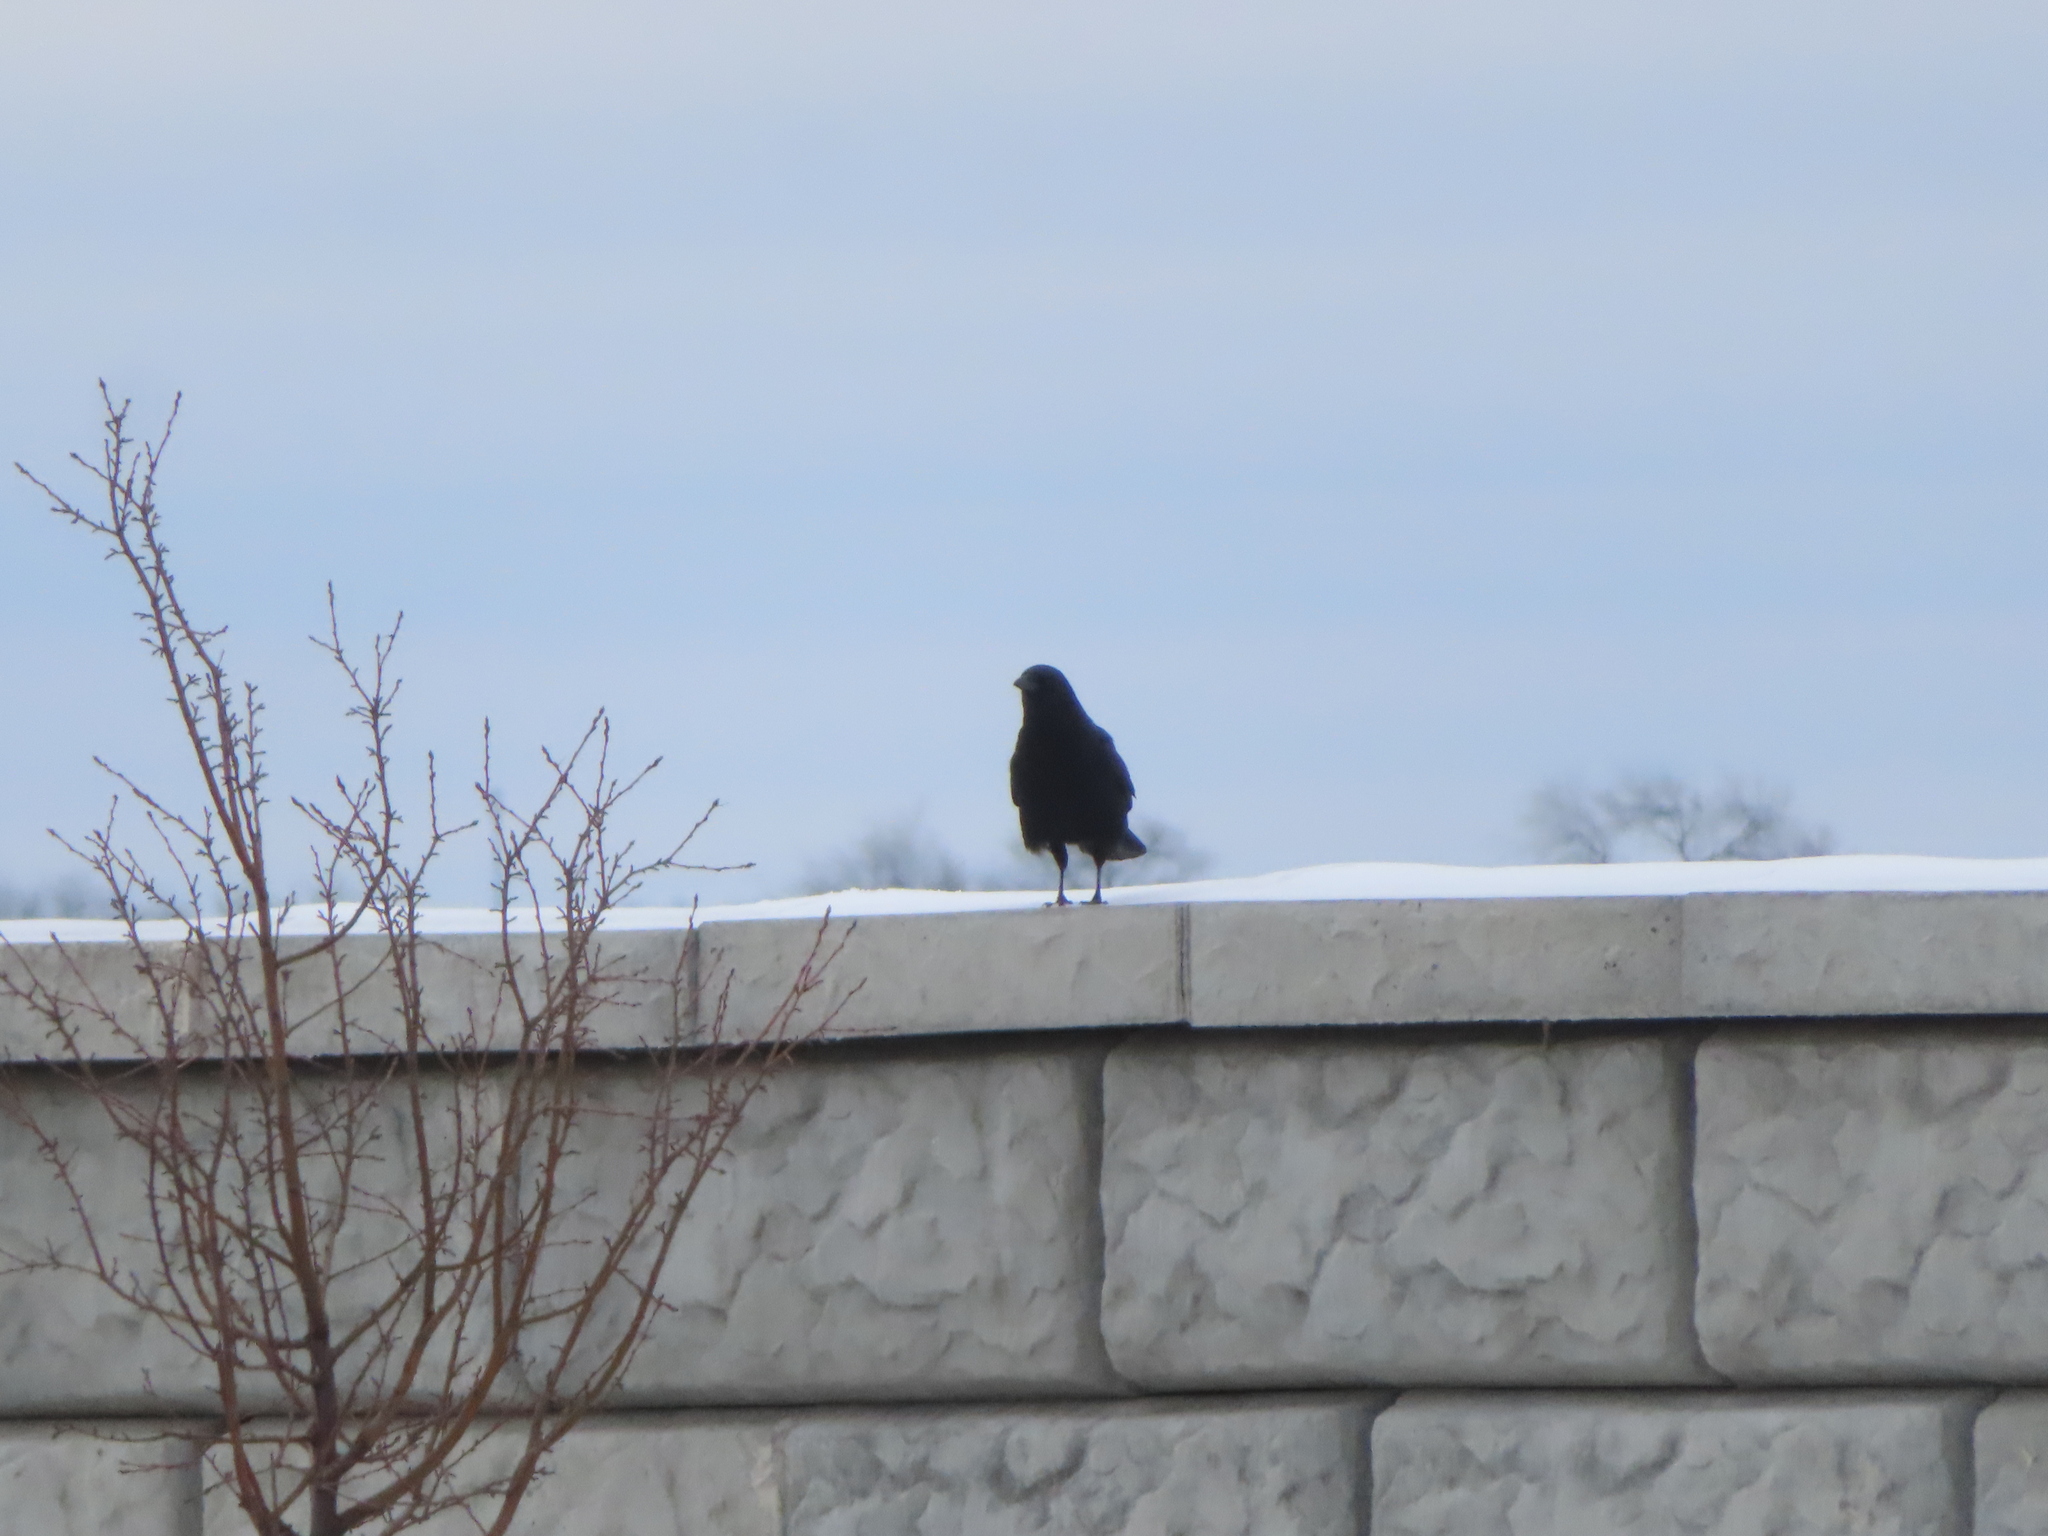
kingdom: Animalia
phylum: Chordata
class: Aves
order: Passeriformes
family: Corvidae
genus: Corvus
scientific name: Corvus brachyrhynchos
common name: American crow
